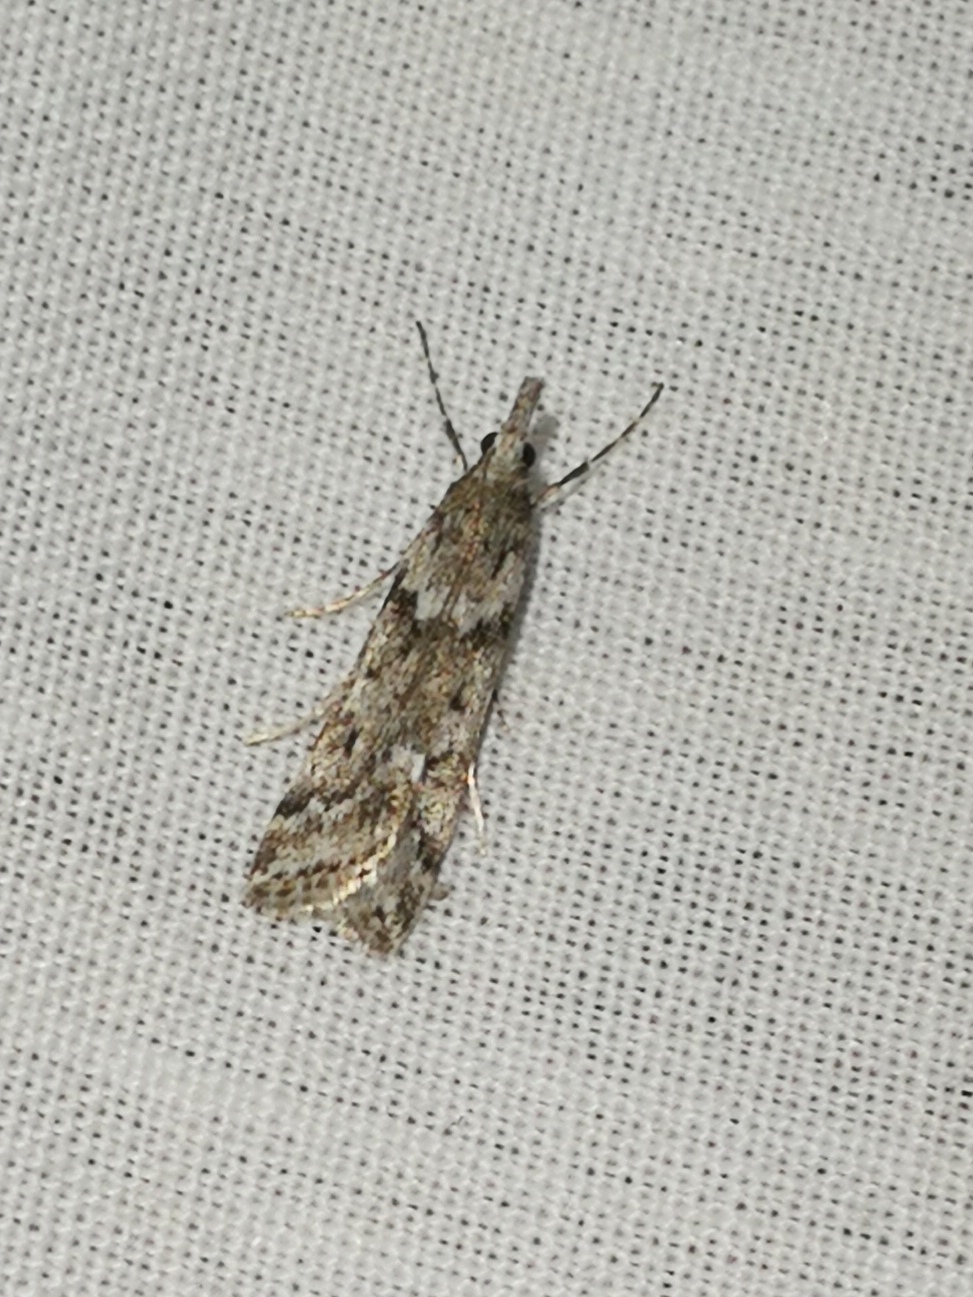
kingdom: Animalia
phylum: Arthropoda
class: Insecta
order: Lepidoptera
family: Crambidae
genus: Eudonia
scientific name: Eudonia angustea
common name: Narrow-winged grey
